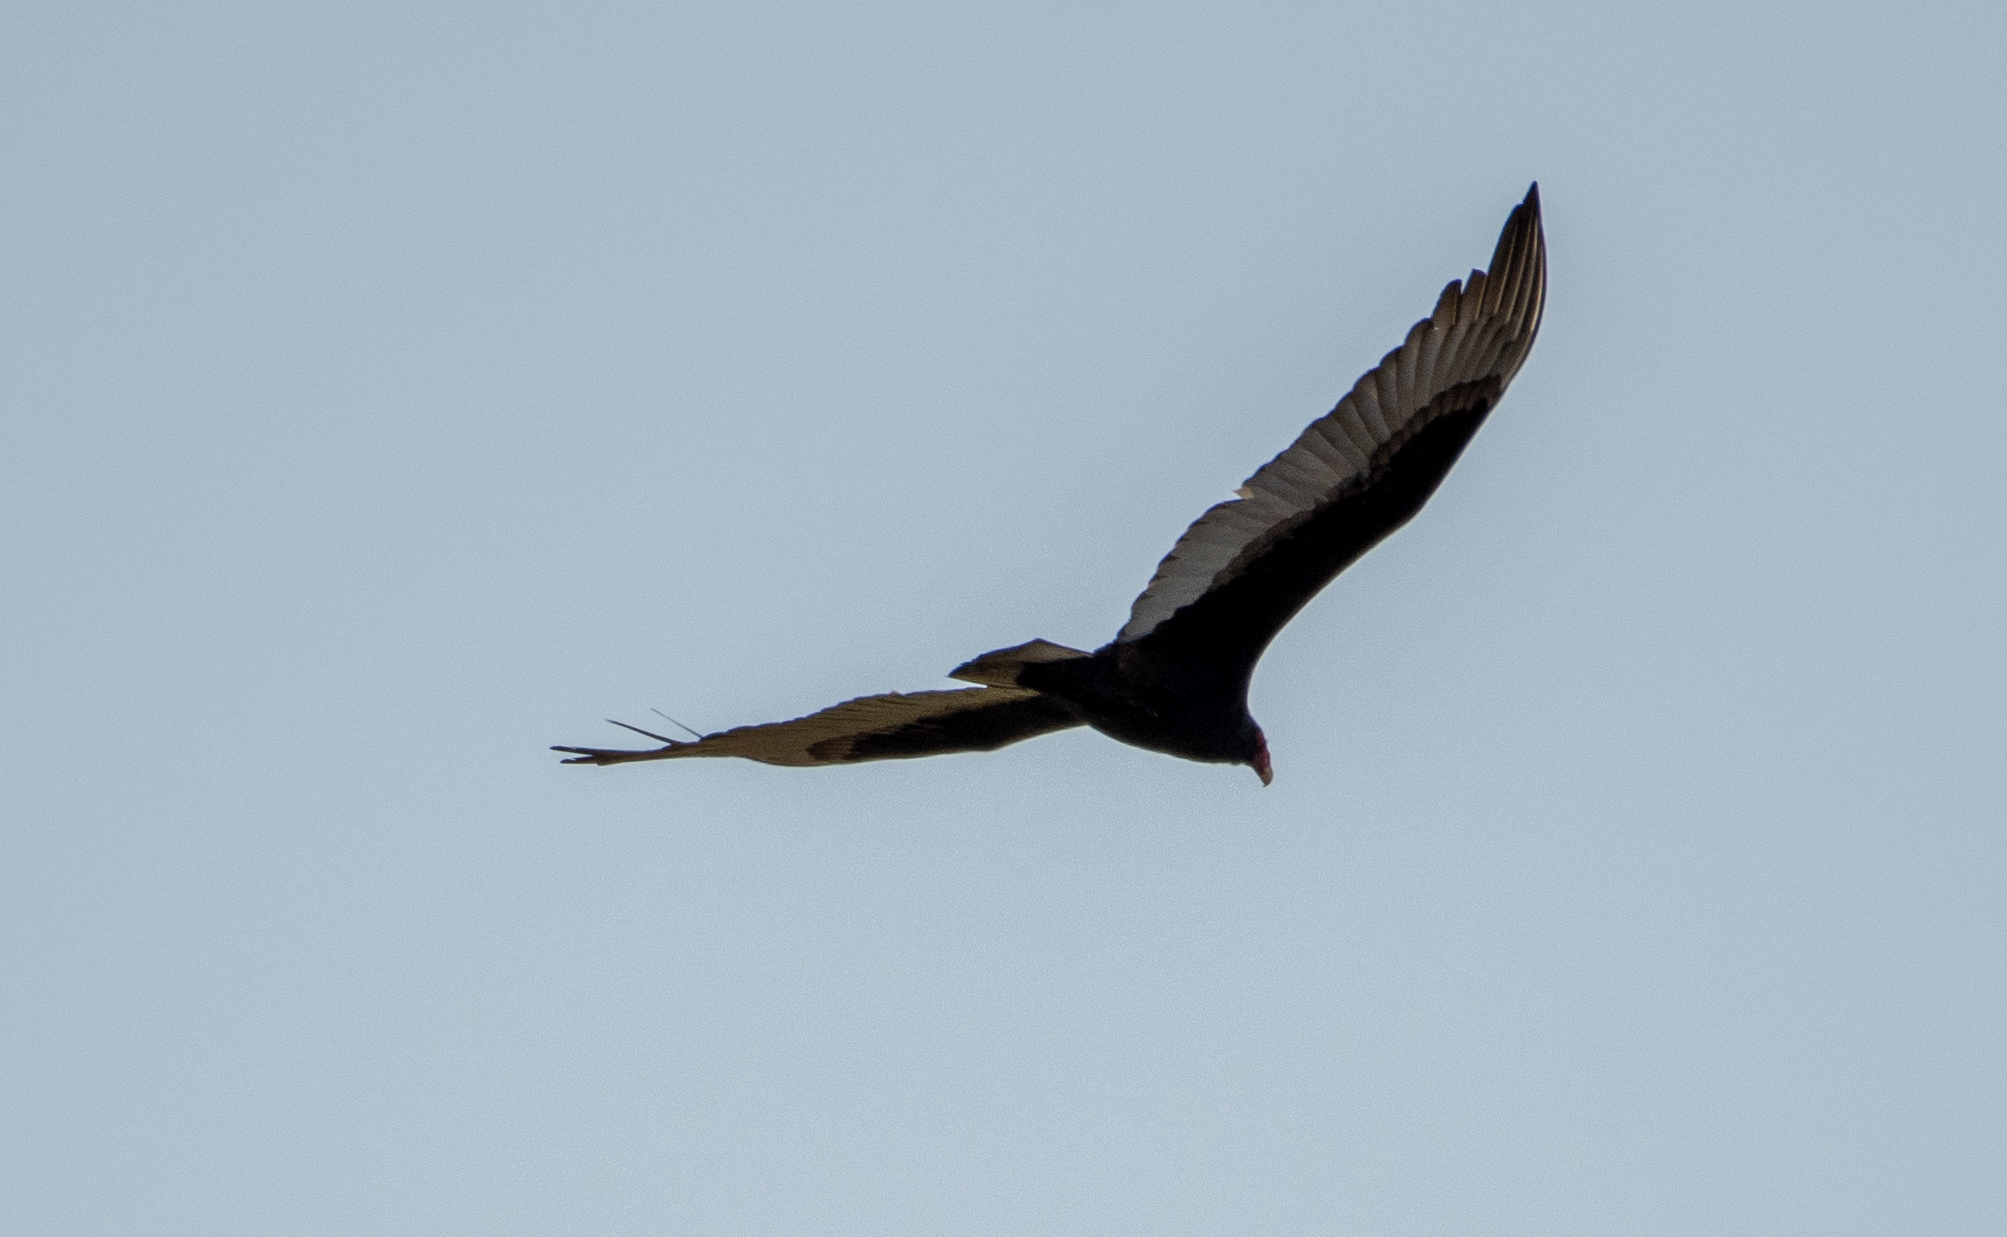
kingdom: Animalia
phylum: Chordata
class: Aves
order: Accipitriformes
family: Cathartidae
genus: Cathartes
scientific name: Cathartes aura
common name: Turkey vulture
